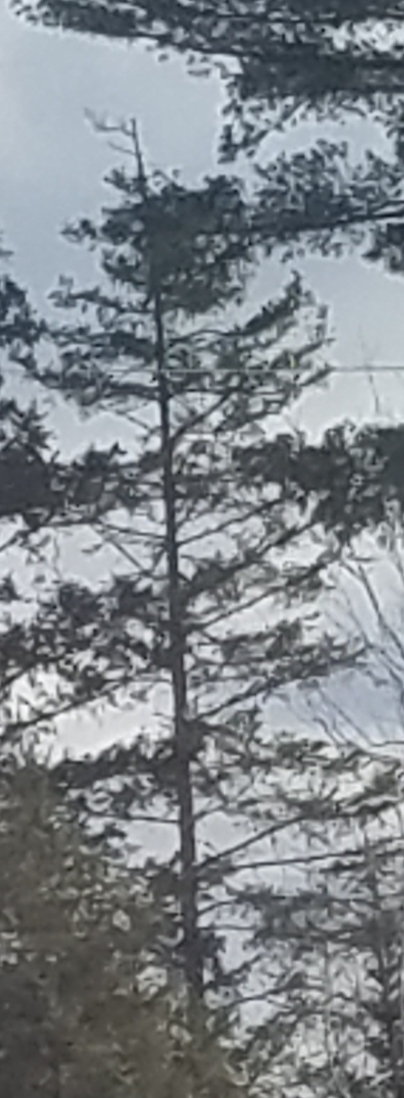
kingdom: Plantae
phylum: Tracheophyta
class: Pinopsida
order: Pinales
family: Pinaceae
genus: Pinus
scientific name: Pinus strobus
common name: Weymouth pine
